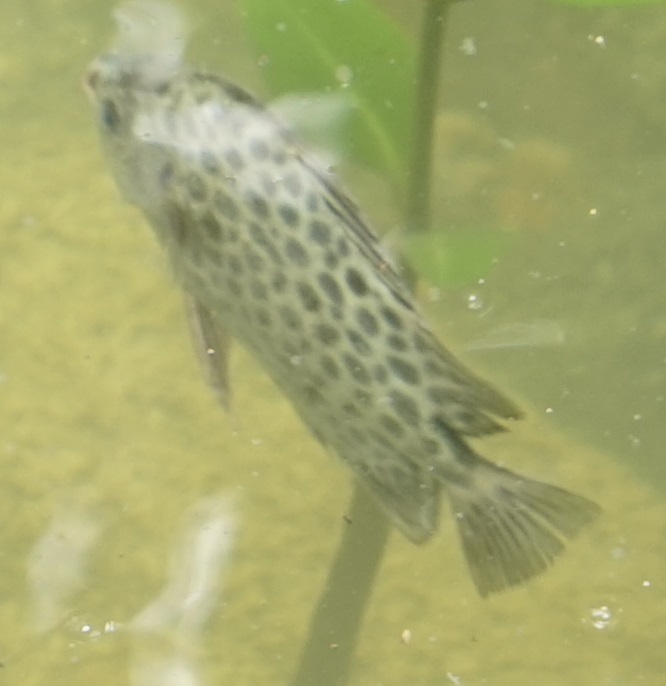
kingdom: Animalia
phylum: Chordata
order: Perciformes
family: Scatophagidae
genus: Scatophagus
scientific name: Scatophagus argus
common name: Spotted scat
